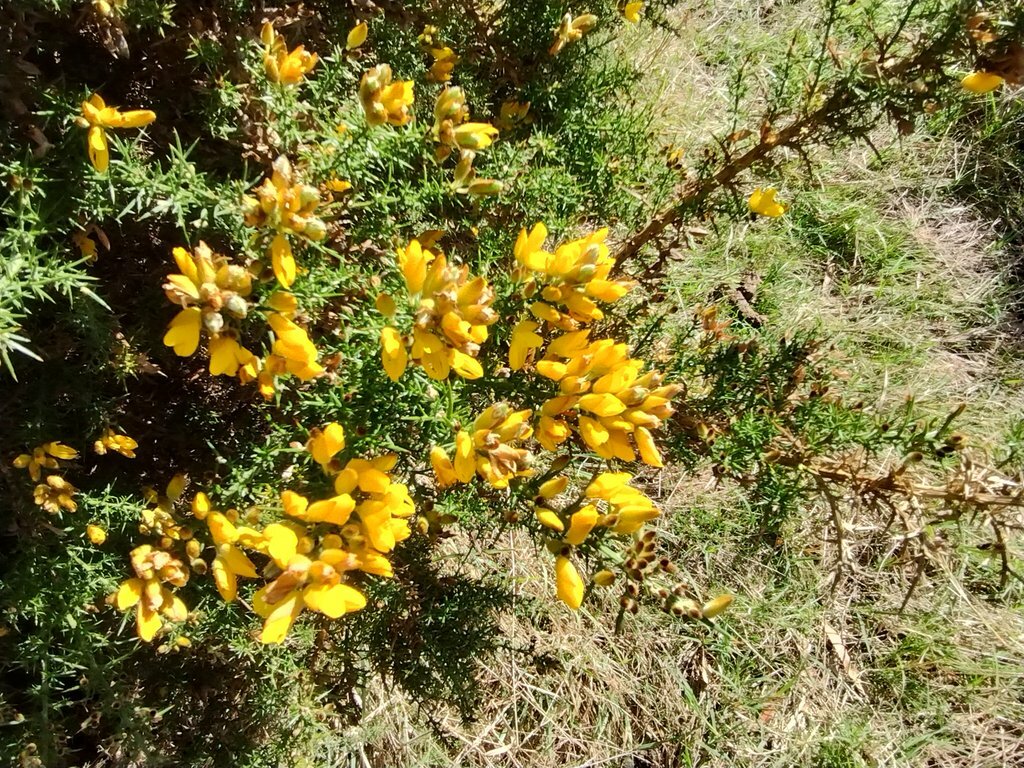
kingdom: Plantae
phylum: Tracheophyta
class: Magnoliopsida
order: Fabales
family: Fabaceae
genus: Ulex
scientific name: Ulex europaeus
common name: Common gorse
